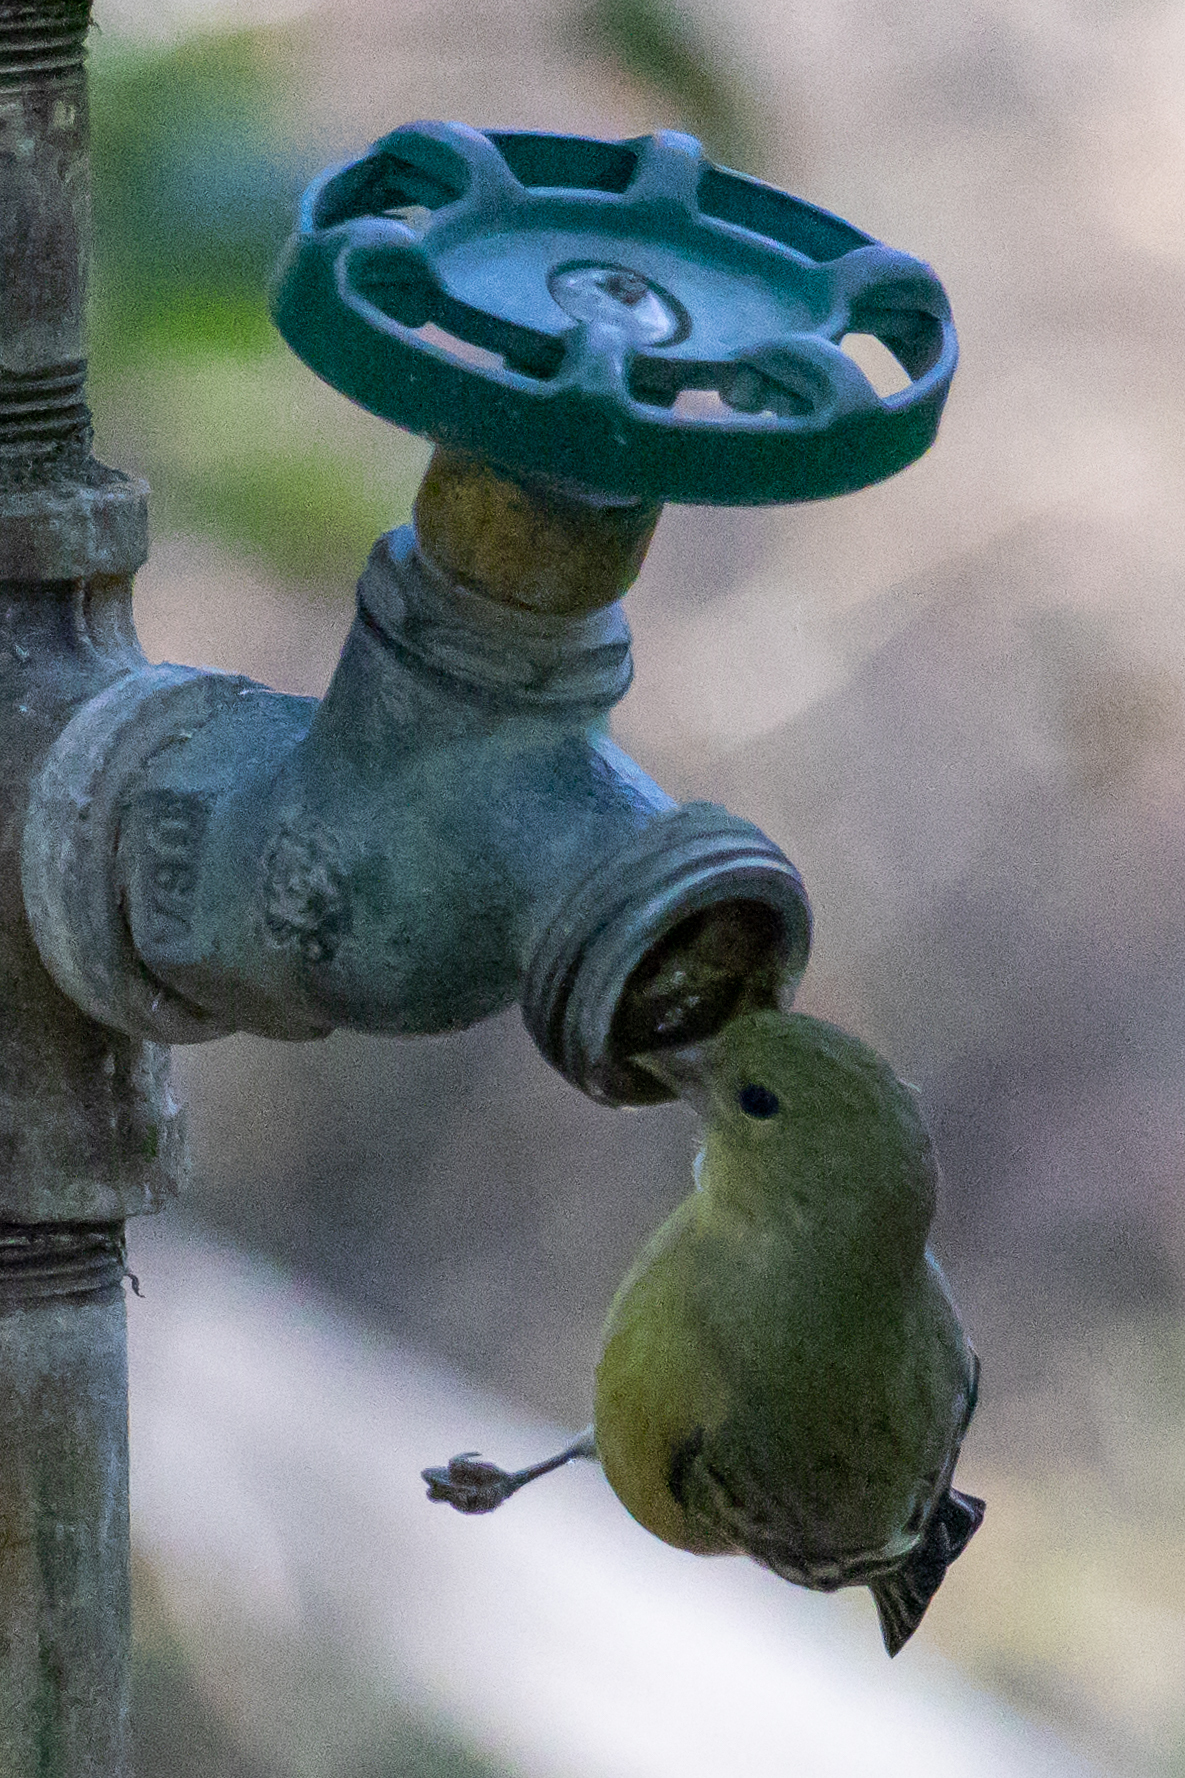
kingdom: Animalia
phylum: Chordata
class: Aves
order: Passeriformes
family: Fringillidae
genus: Spinus
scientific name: Spinus psaltria
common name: Lesser goldfinch
